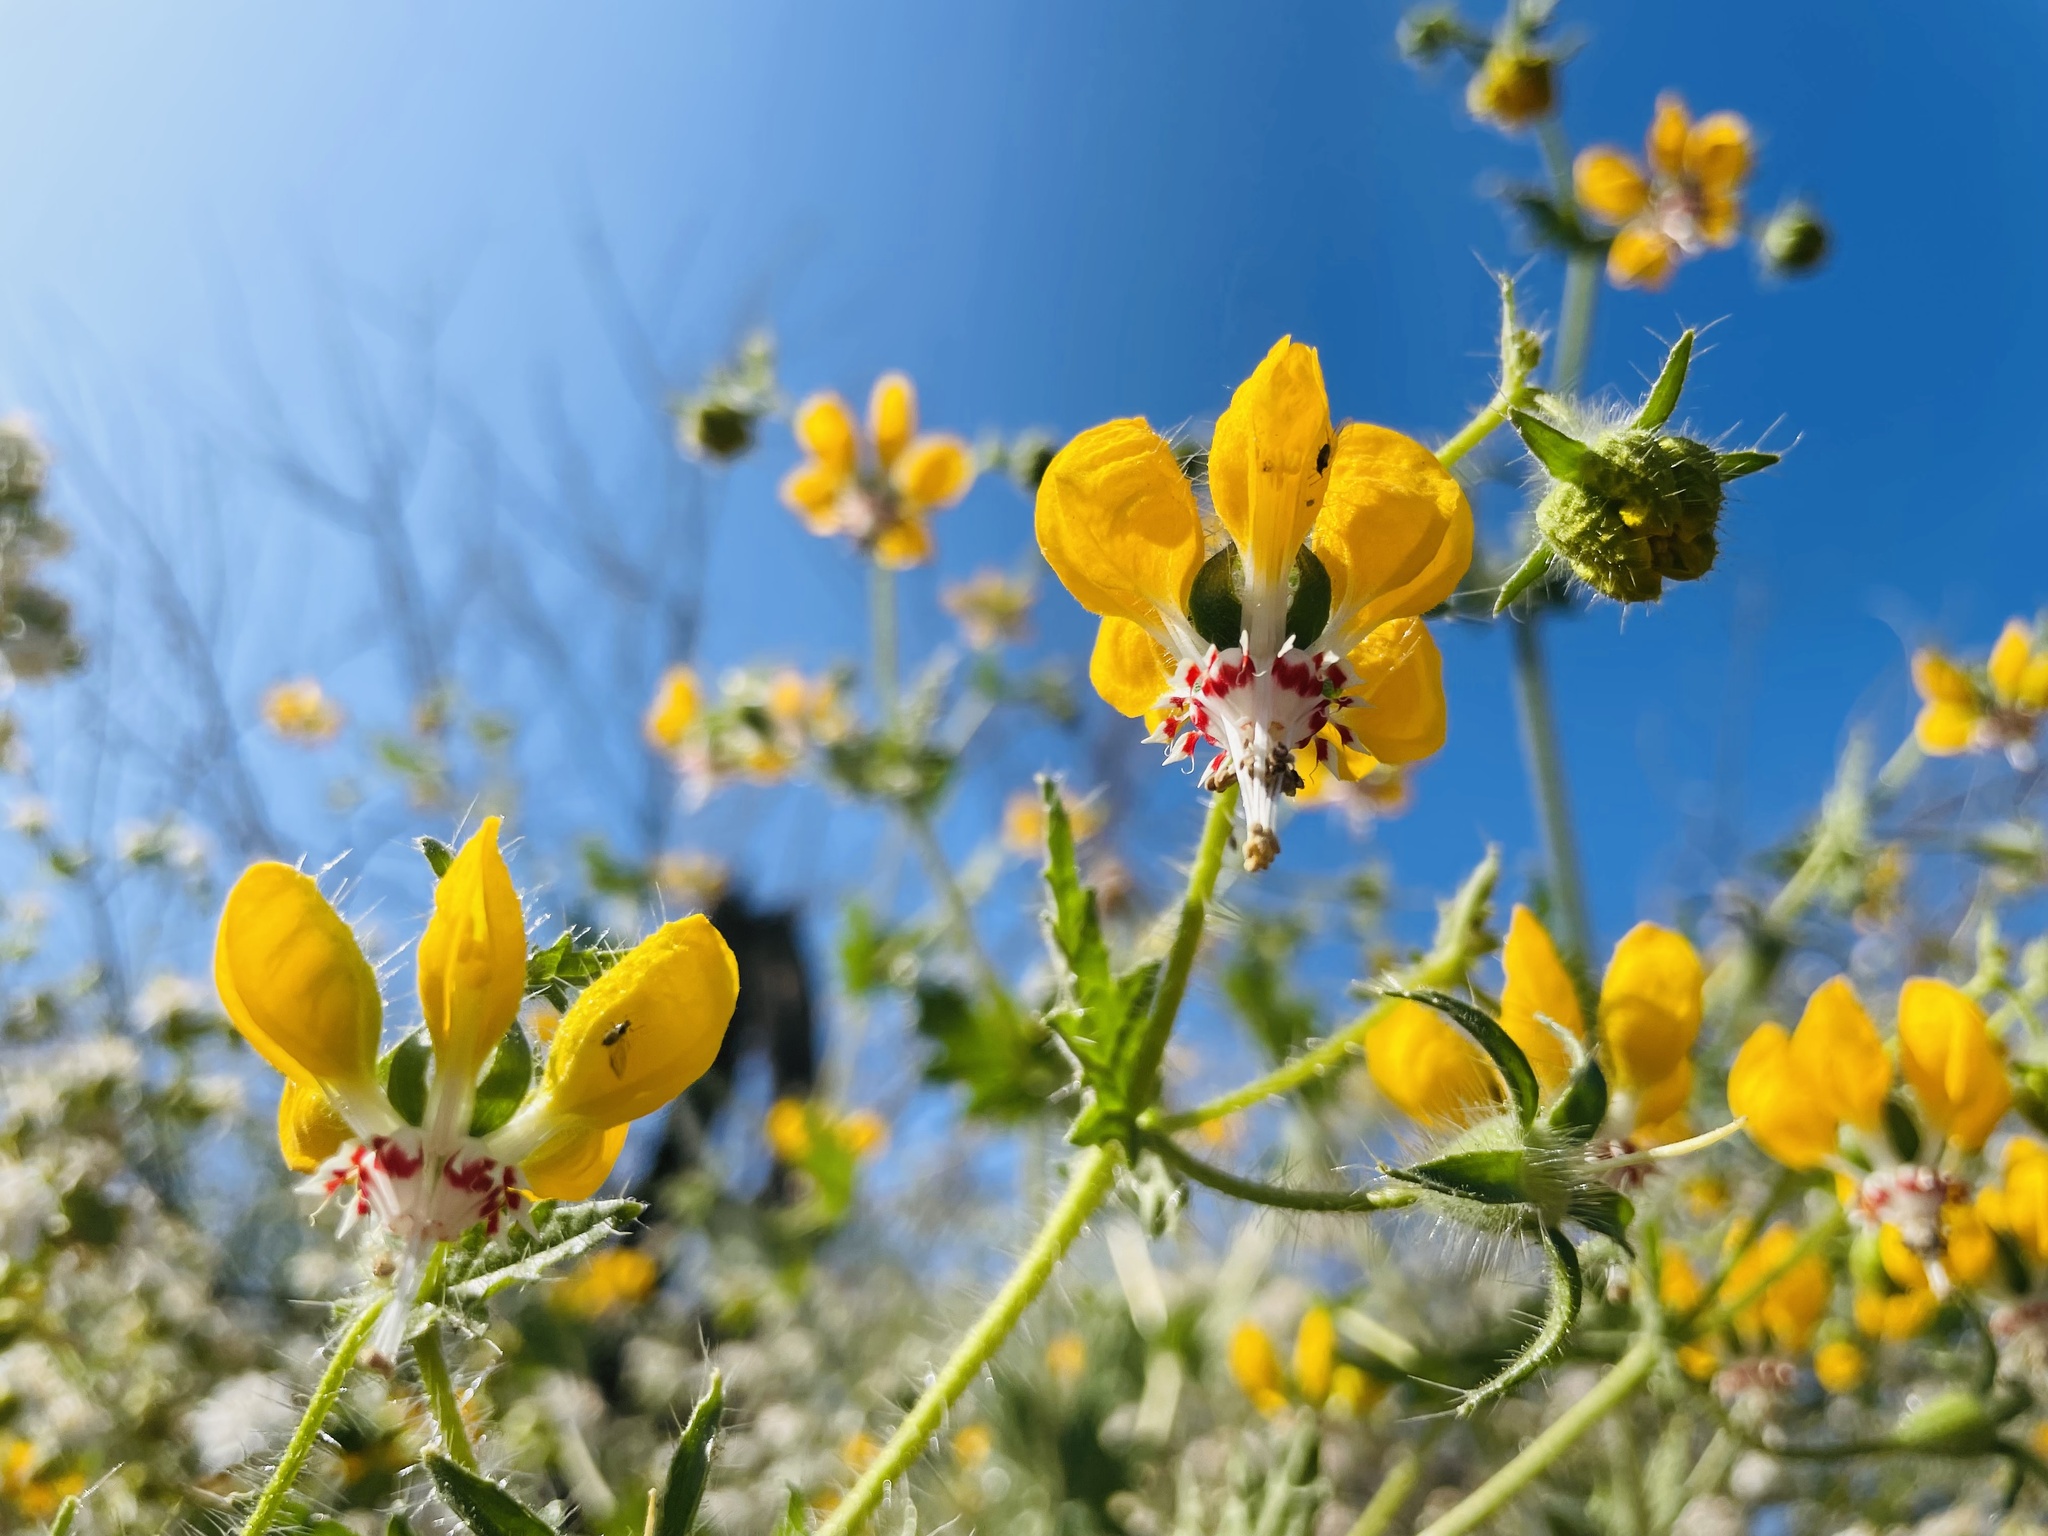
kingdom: Plantae
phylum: Tracheophyta
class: Magnoliopsida
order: Cornales
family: Loasaceae
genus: Loasa
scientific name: Loasa placei
